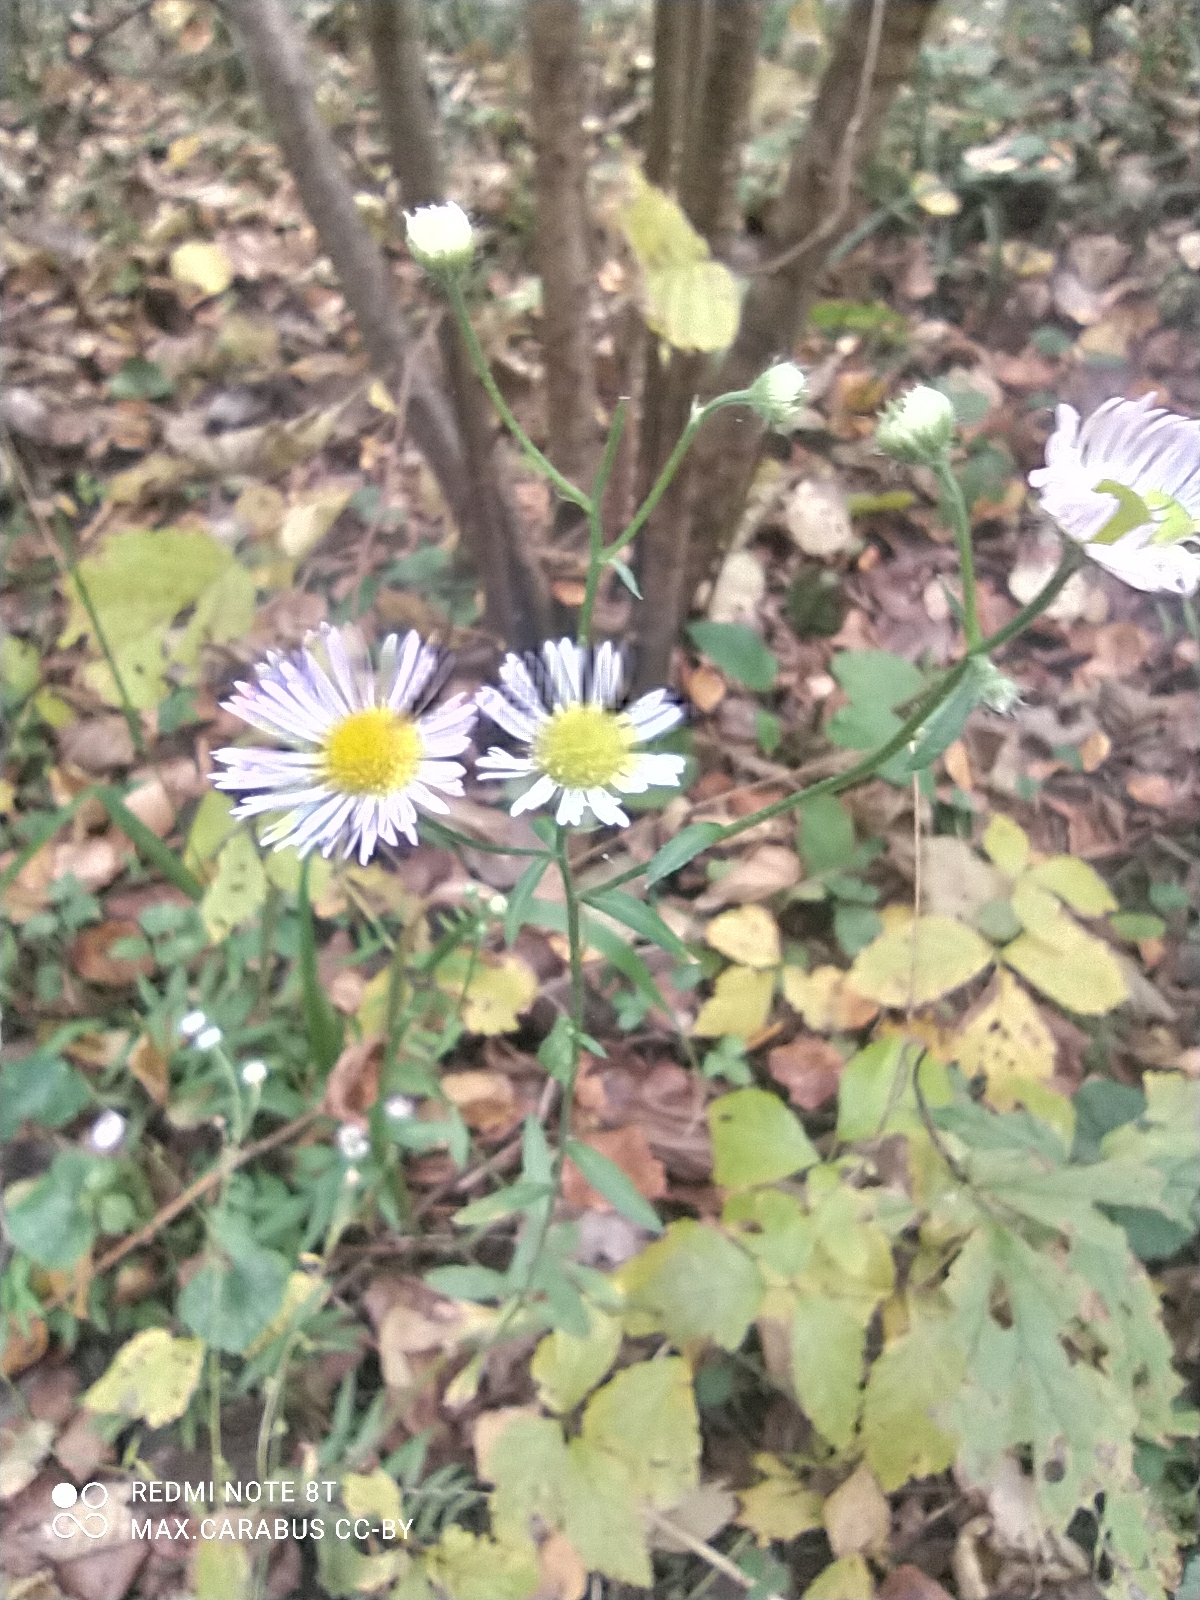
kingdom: Plantae
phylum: Tracheophyta
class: Magnoliopsida
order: Asterales
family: Asteraceae
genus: Erigeron
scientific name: Erigeron annuus
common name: Tall fleabane
